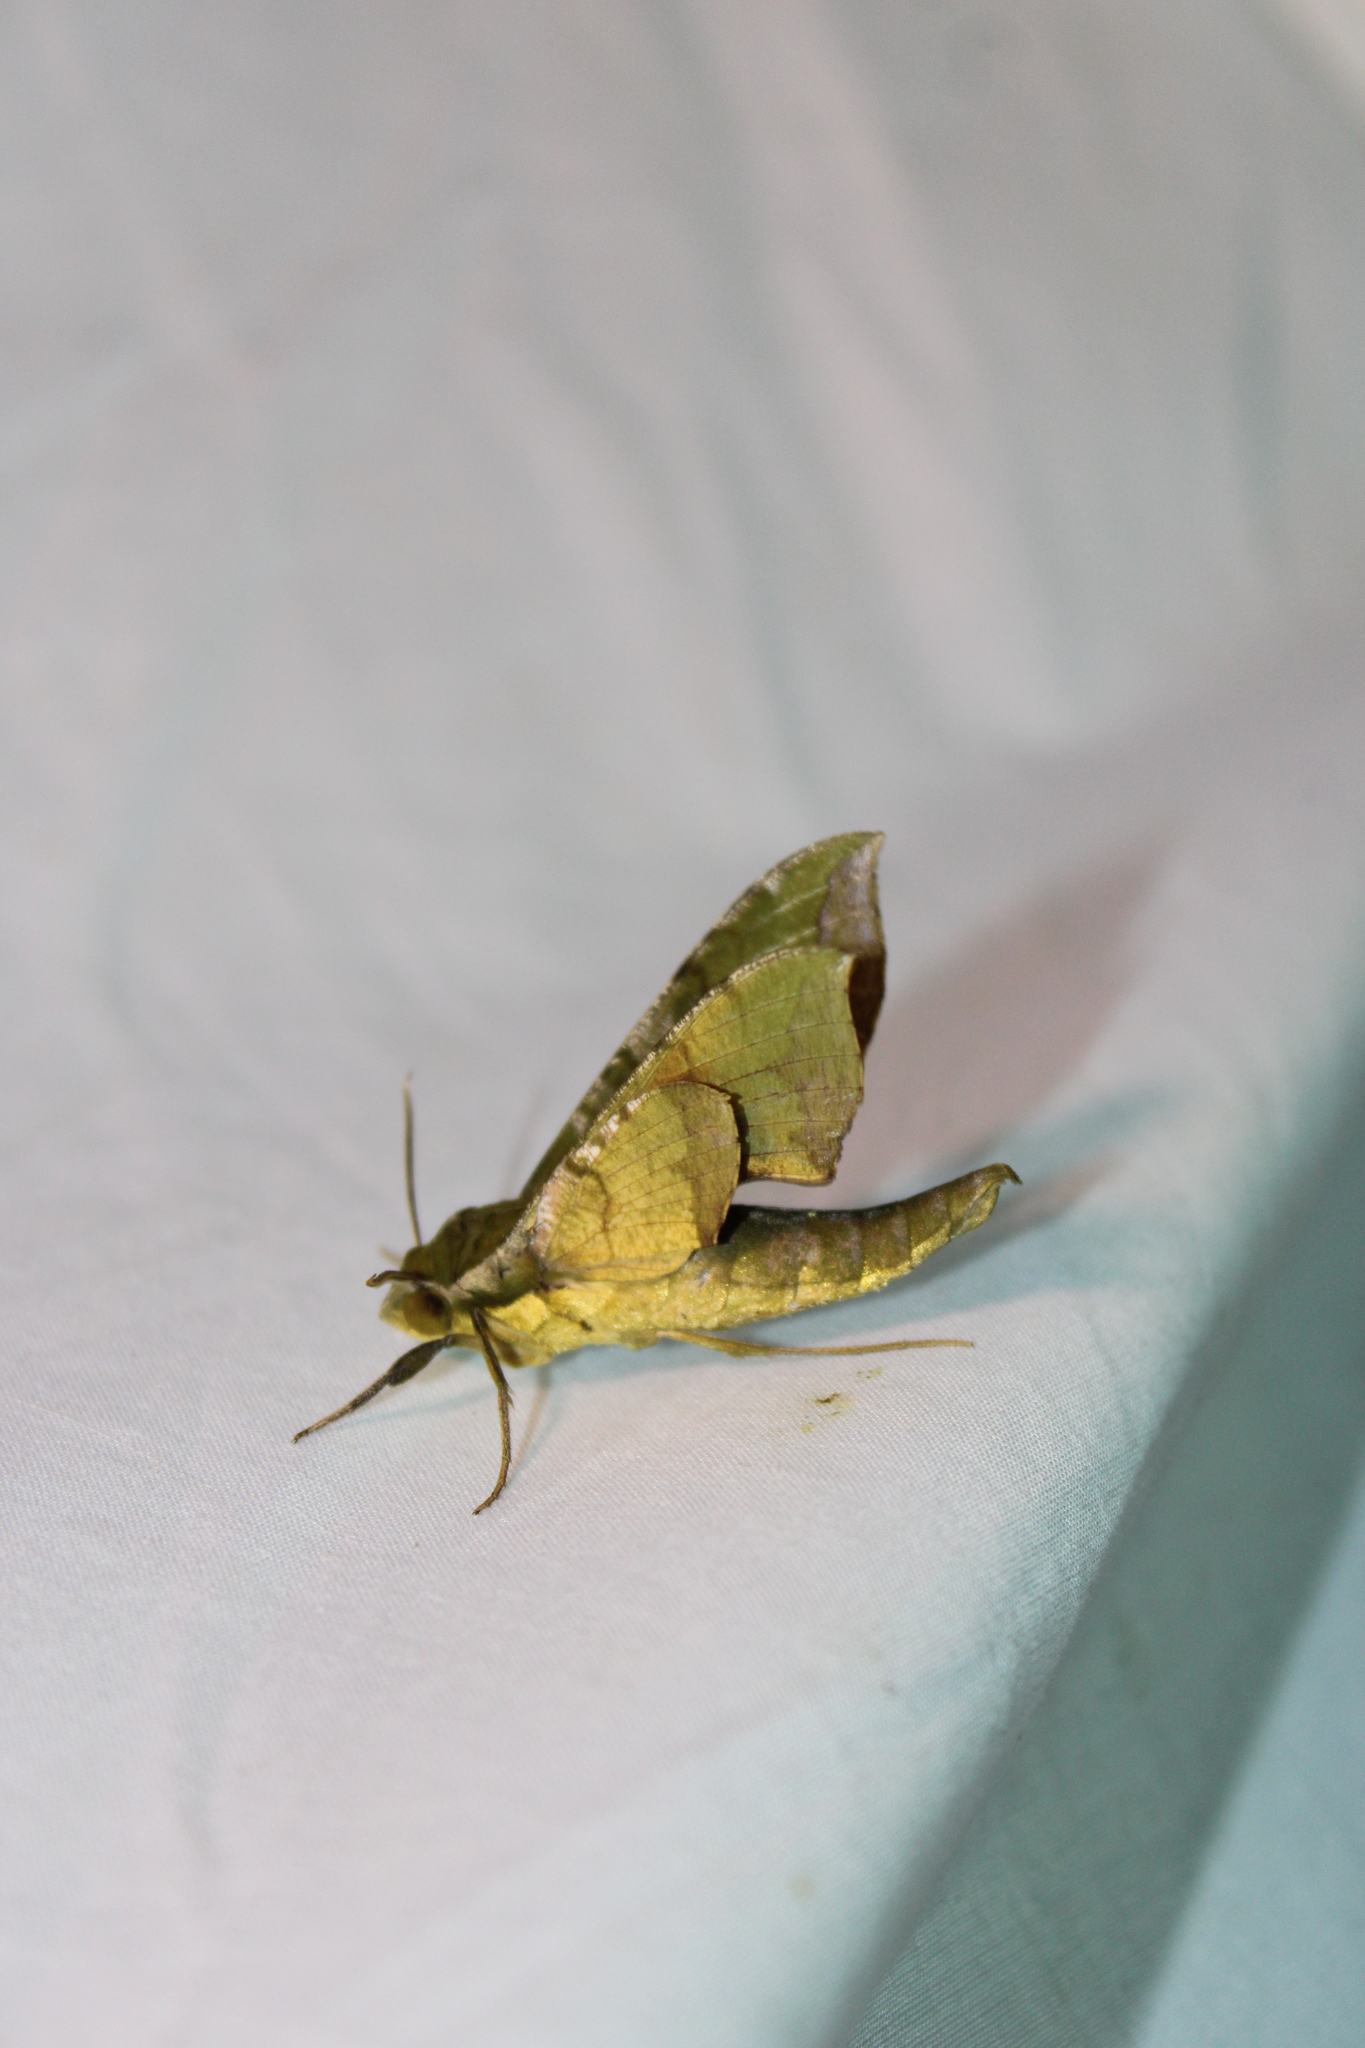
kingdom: Animalia
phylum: Arthropoda
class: Insecta
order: Lepidoptera
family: Sphingidae
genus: Xylophanes
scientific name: Xylophanes pluto
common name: Pluto sphinx
